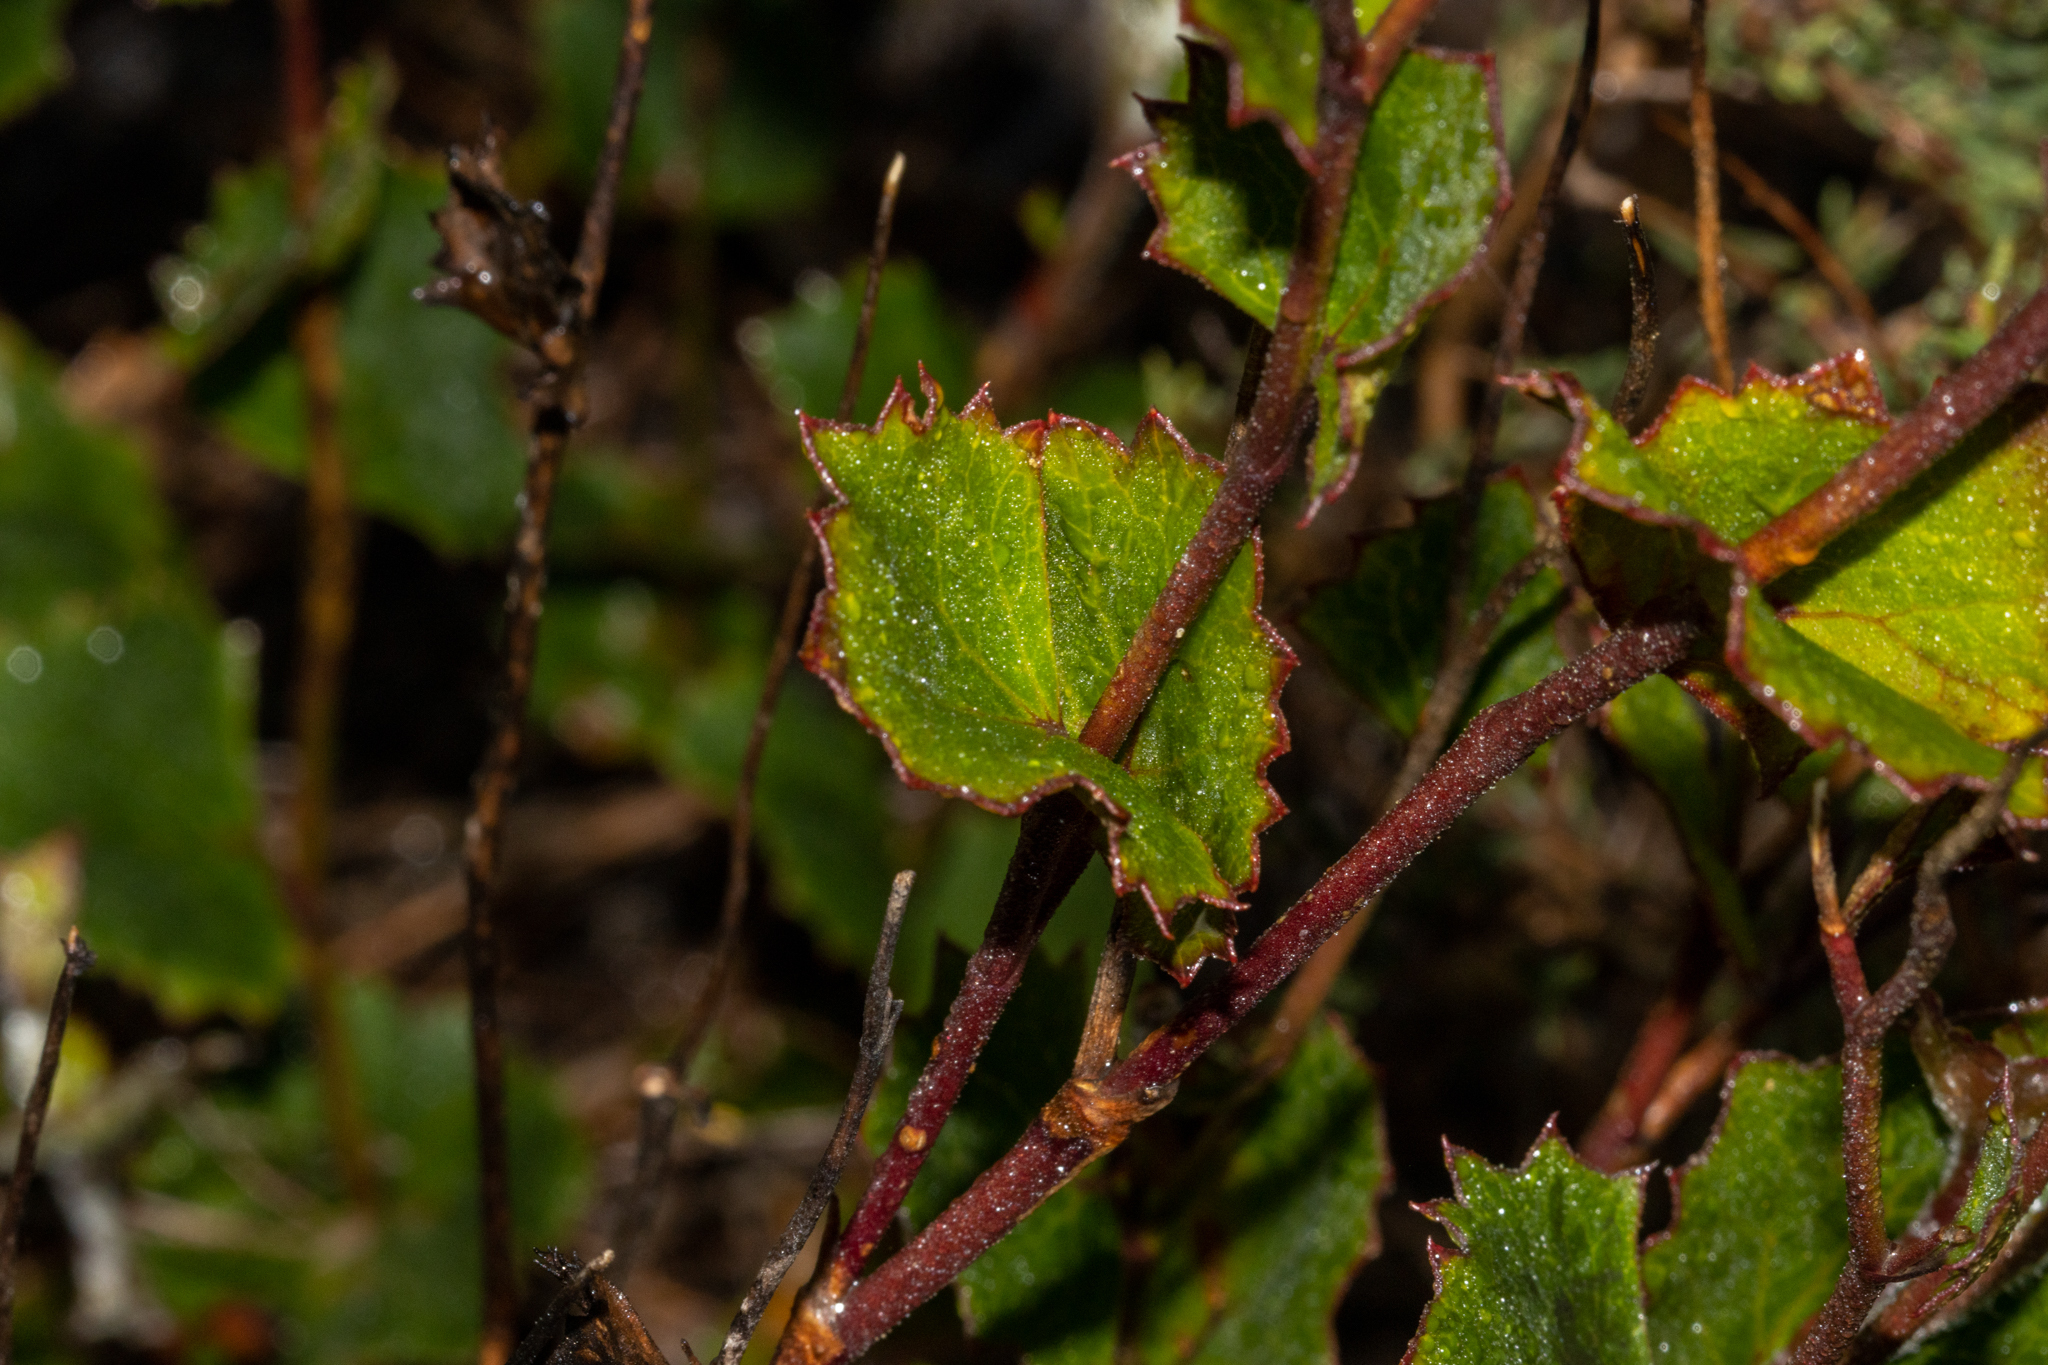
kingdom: Plantae
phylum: Tracheophyta
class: Magnoliopsida
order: Apiales
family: Apiaceae
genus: Xanthosia
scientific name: Xanthosia rotundifolia
